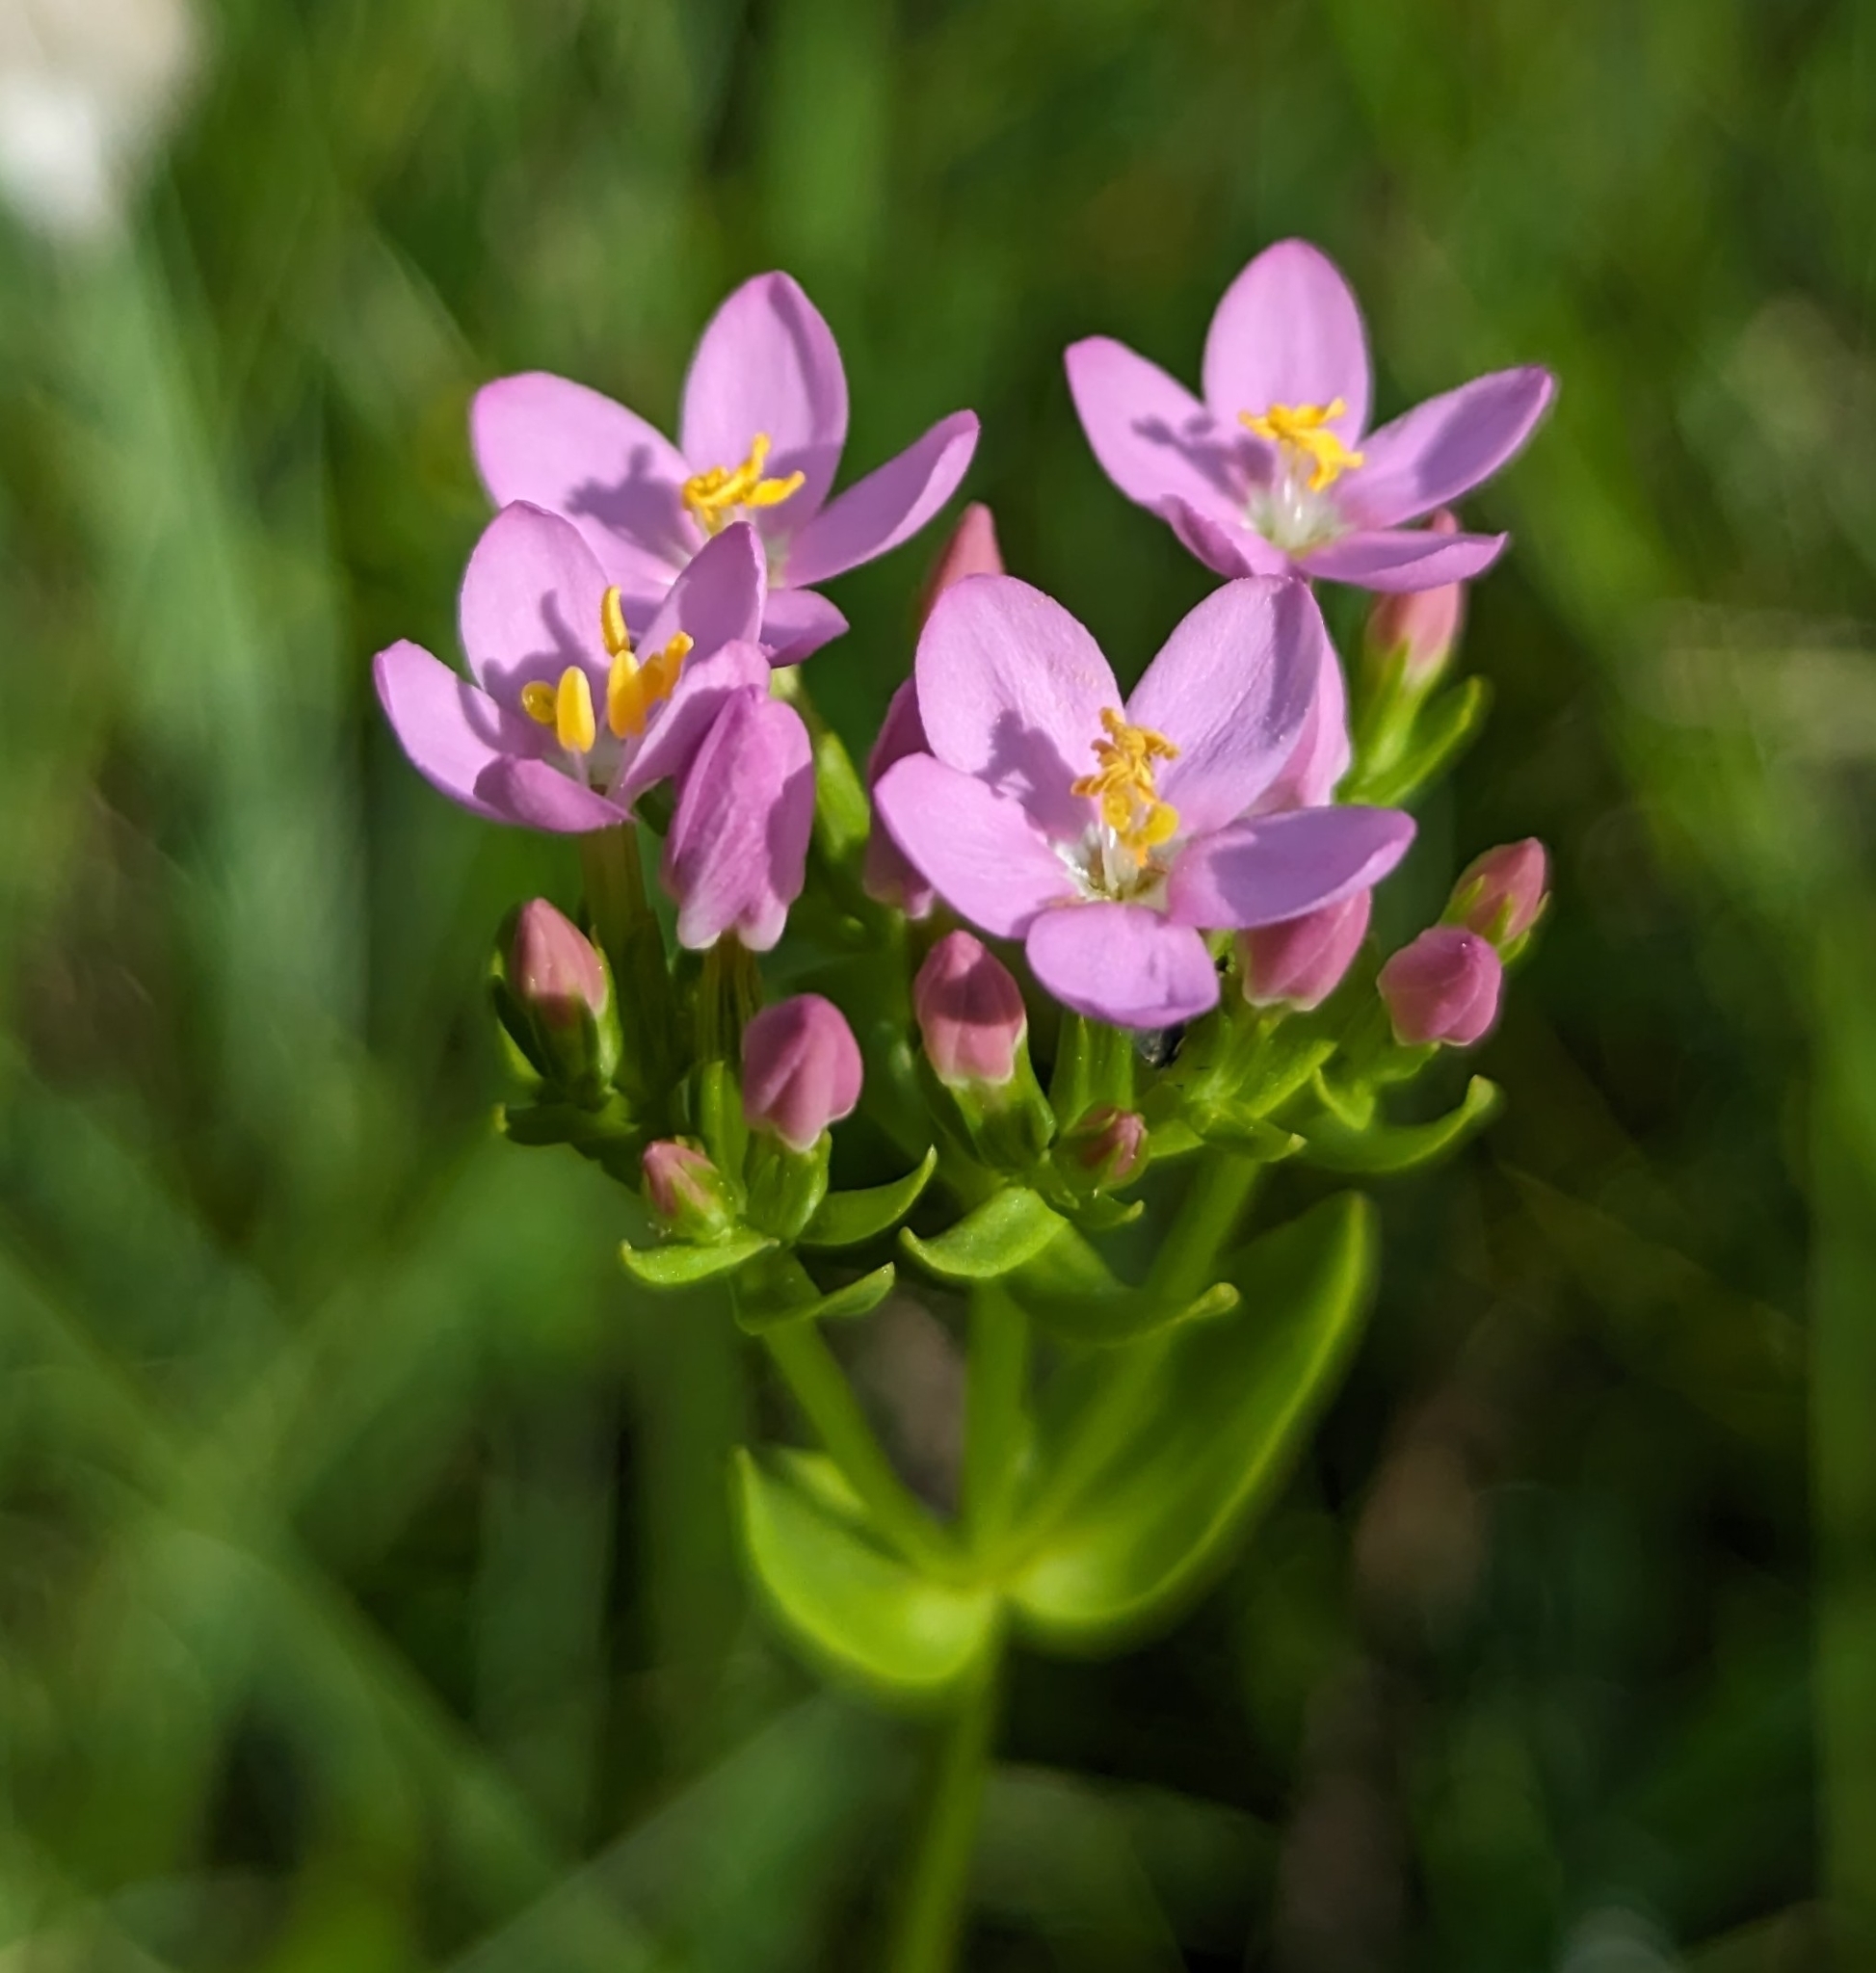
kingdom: Plantae
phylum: Tracheophyta
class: Magnoliopsida
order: Gentianales
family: Gentianaceae
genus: Centaurium
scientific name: Centaurium erythraea
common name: Common centaury
